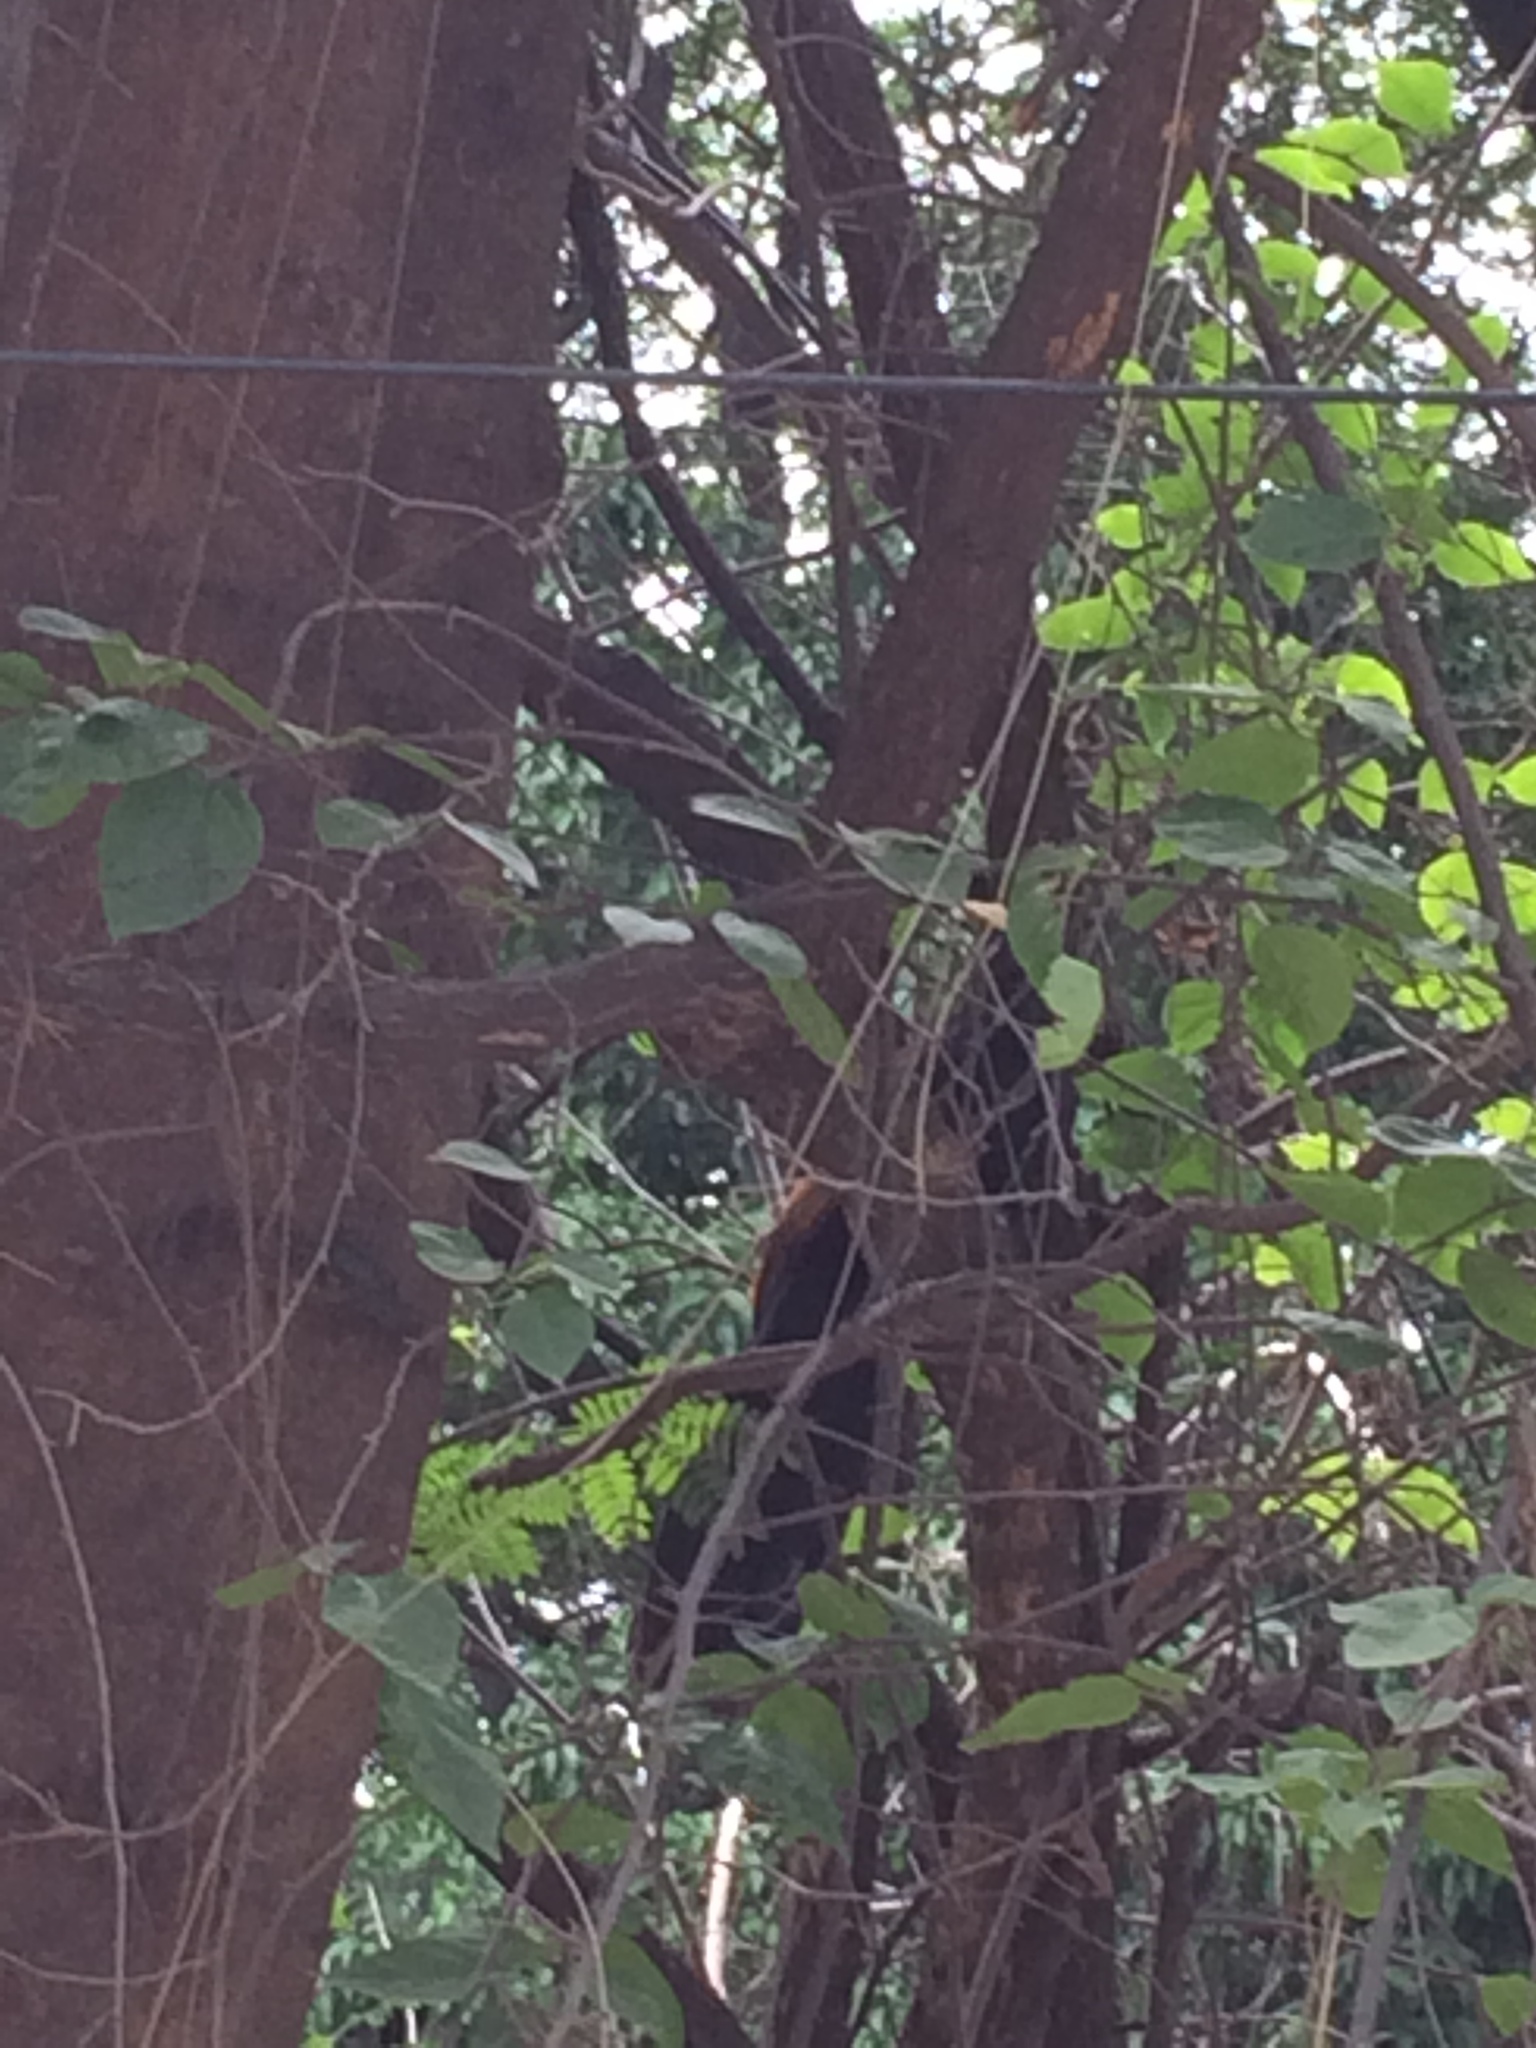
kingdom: Animalia
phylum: Chordata
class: Aves
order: Cuculiformes
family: Cuculidae
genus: Centropus
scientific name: Centropus sinensis
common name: Greater coucal
